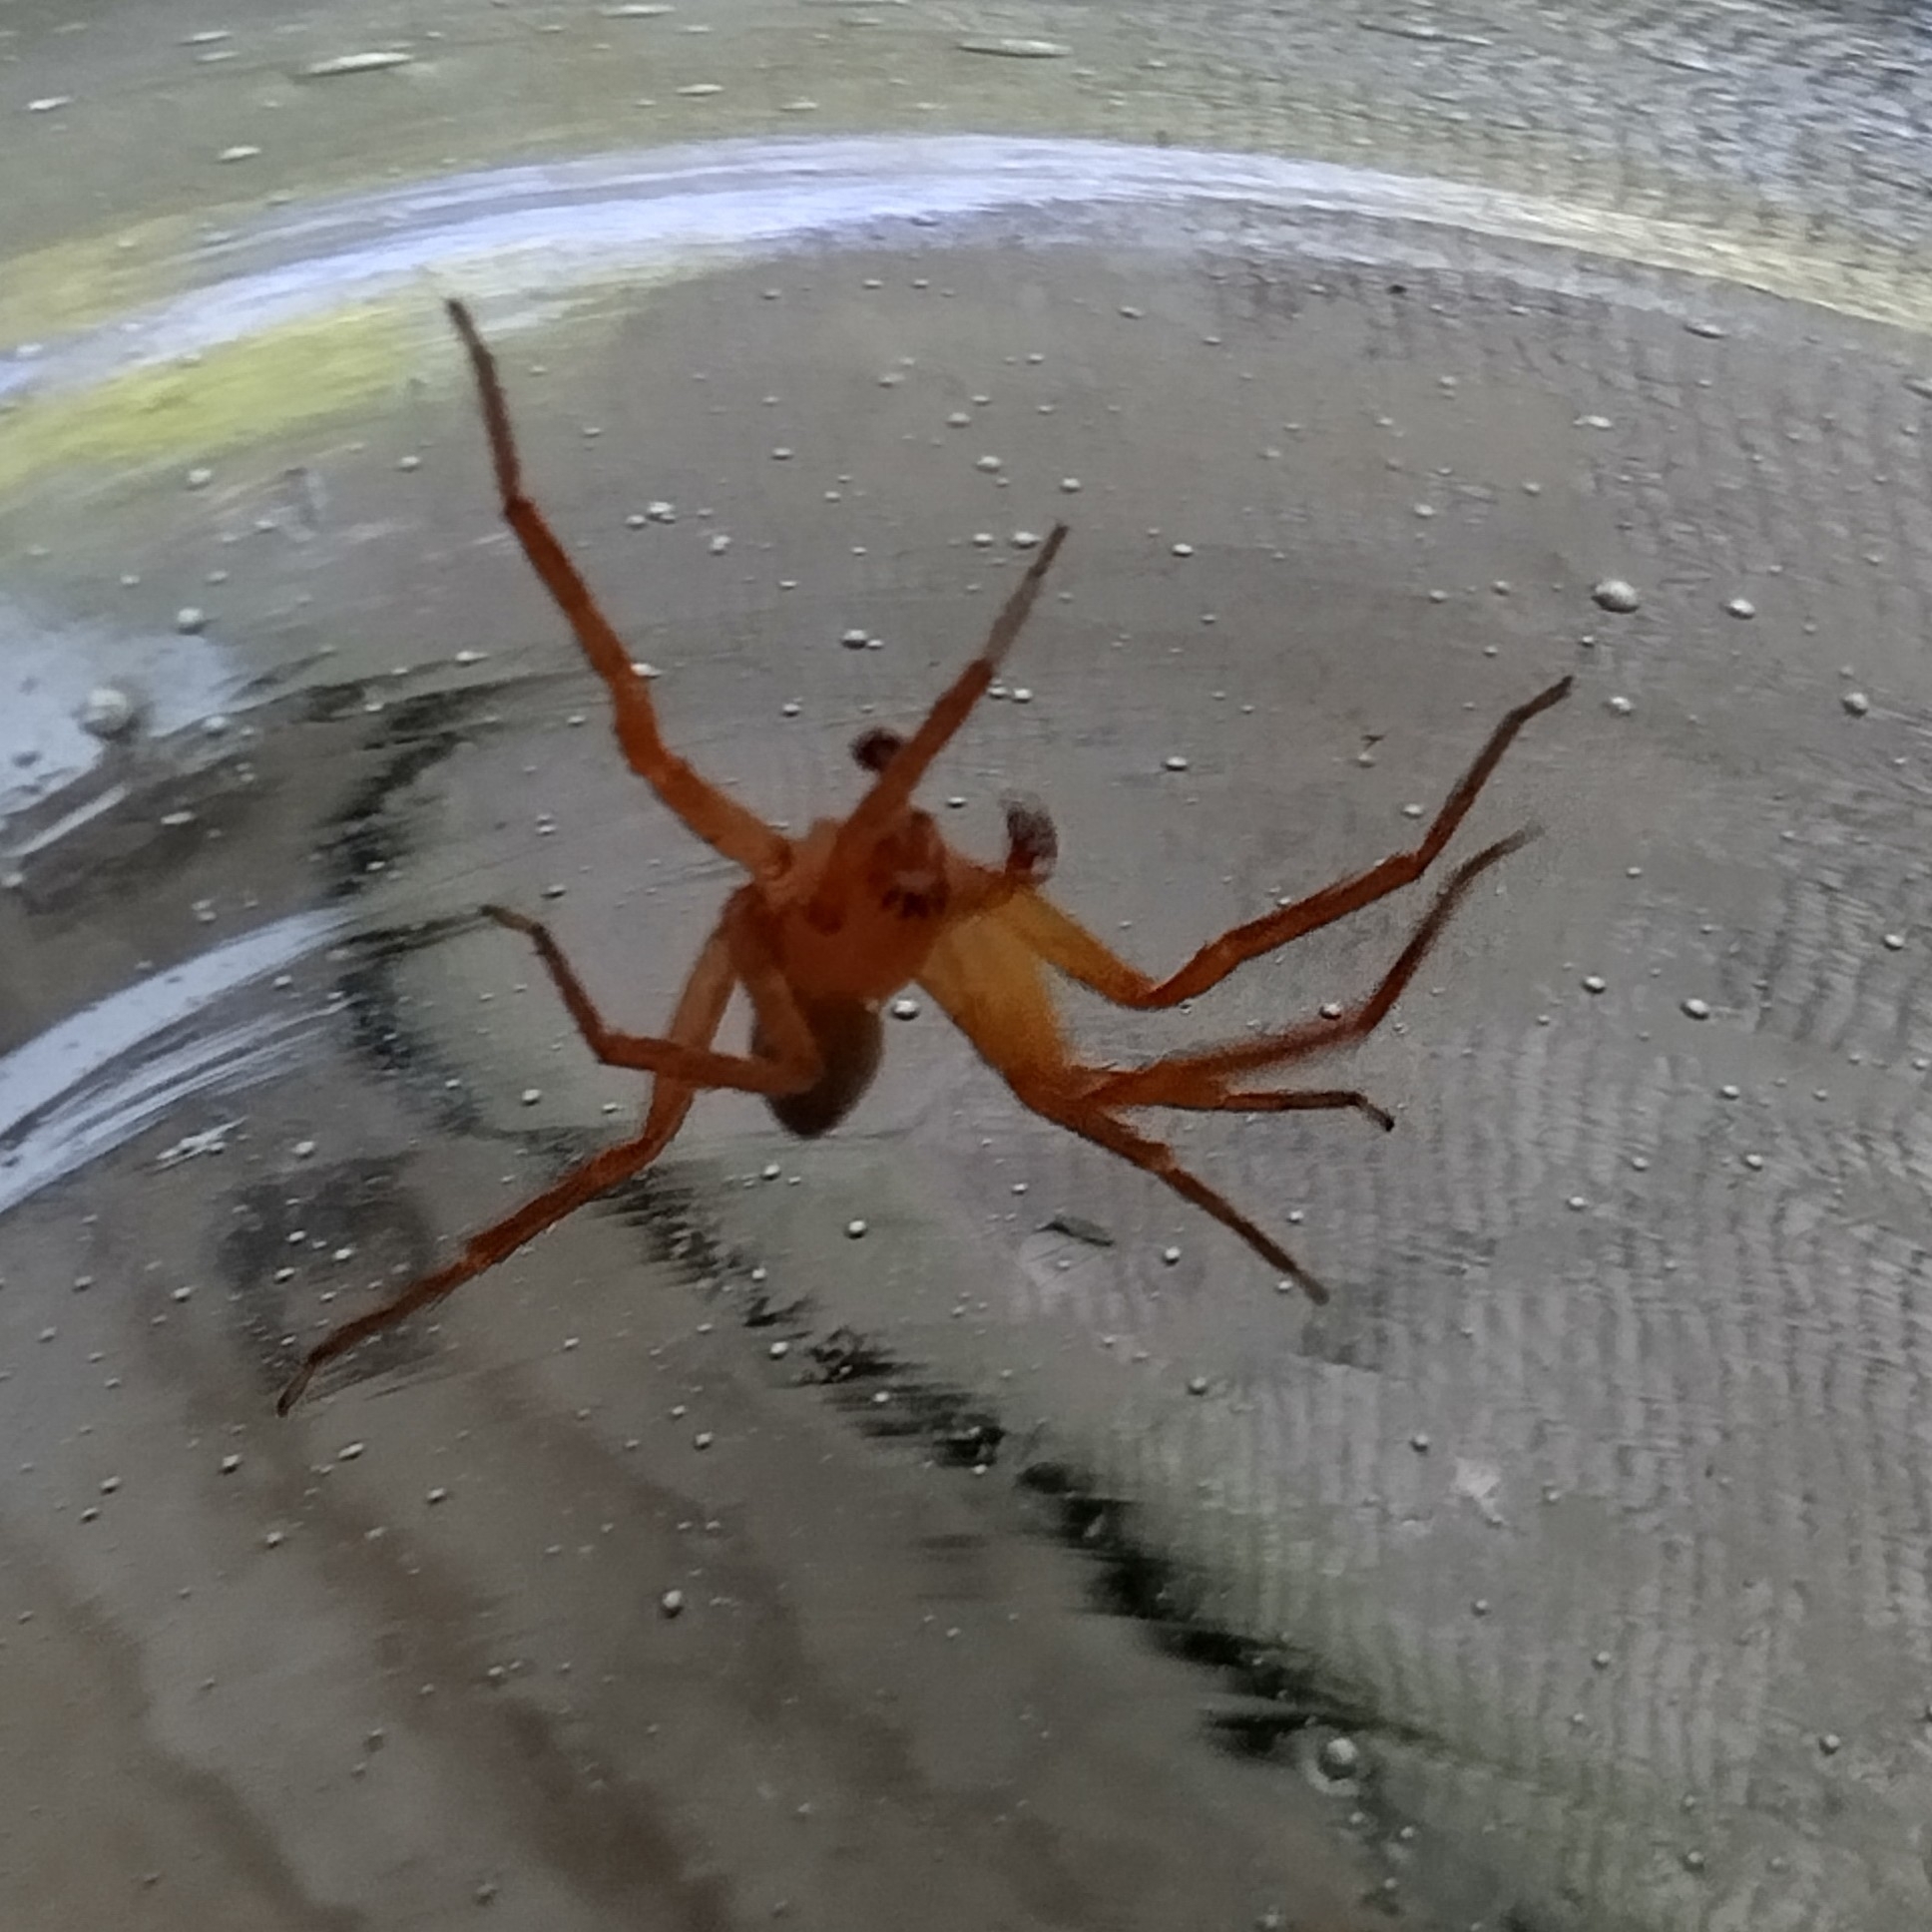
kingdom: Animalia
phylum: Arthropoda
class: Arachnida
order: Araneae
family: Sparassidae
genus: Decaphora
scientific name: Decaphora cubana
